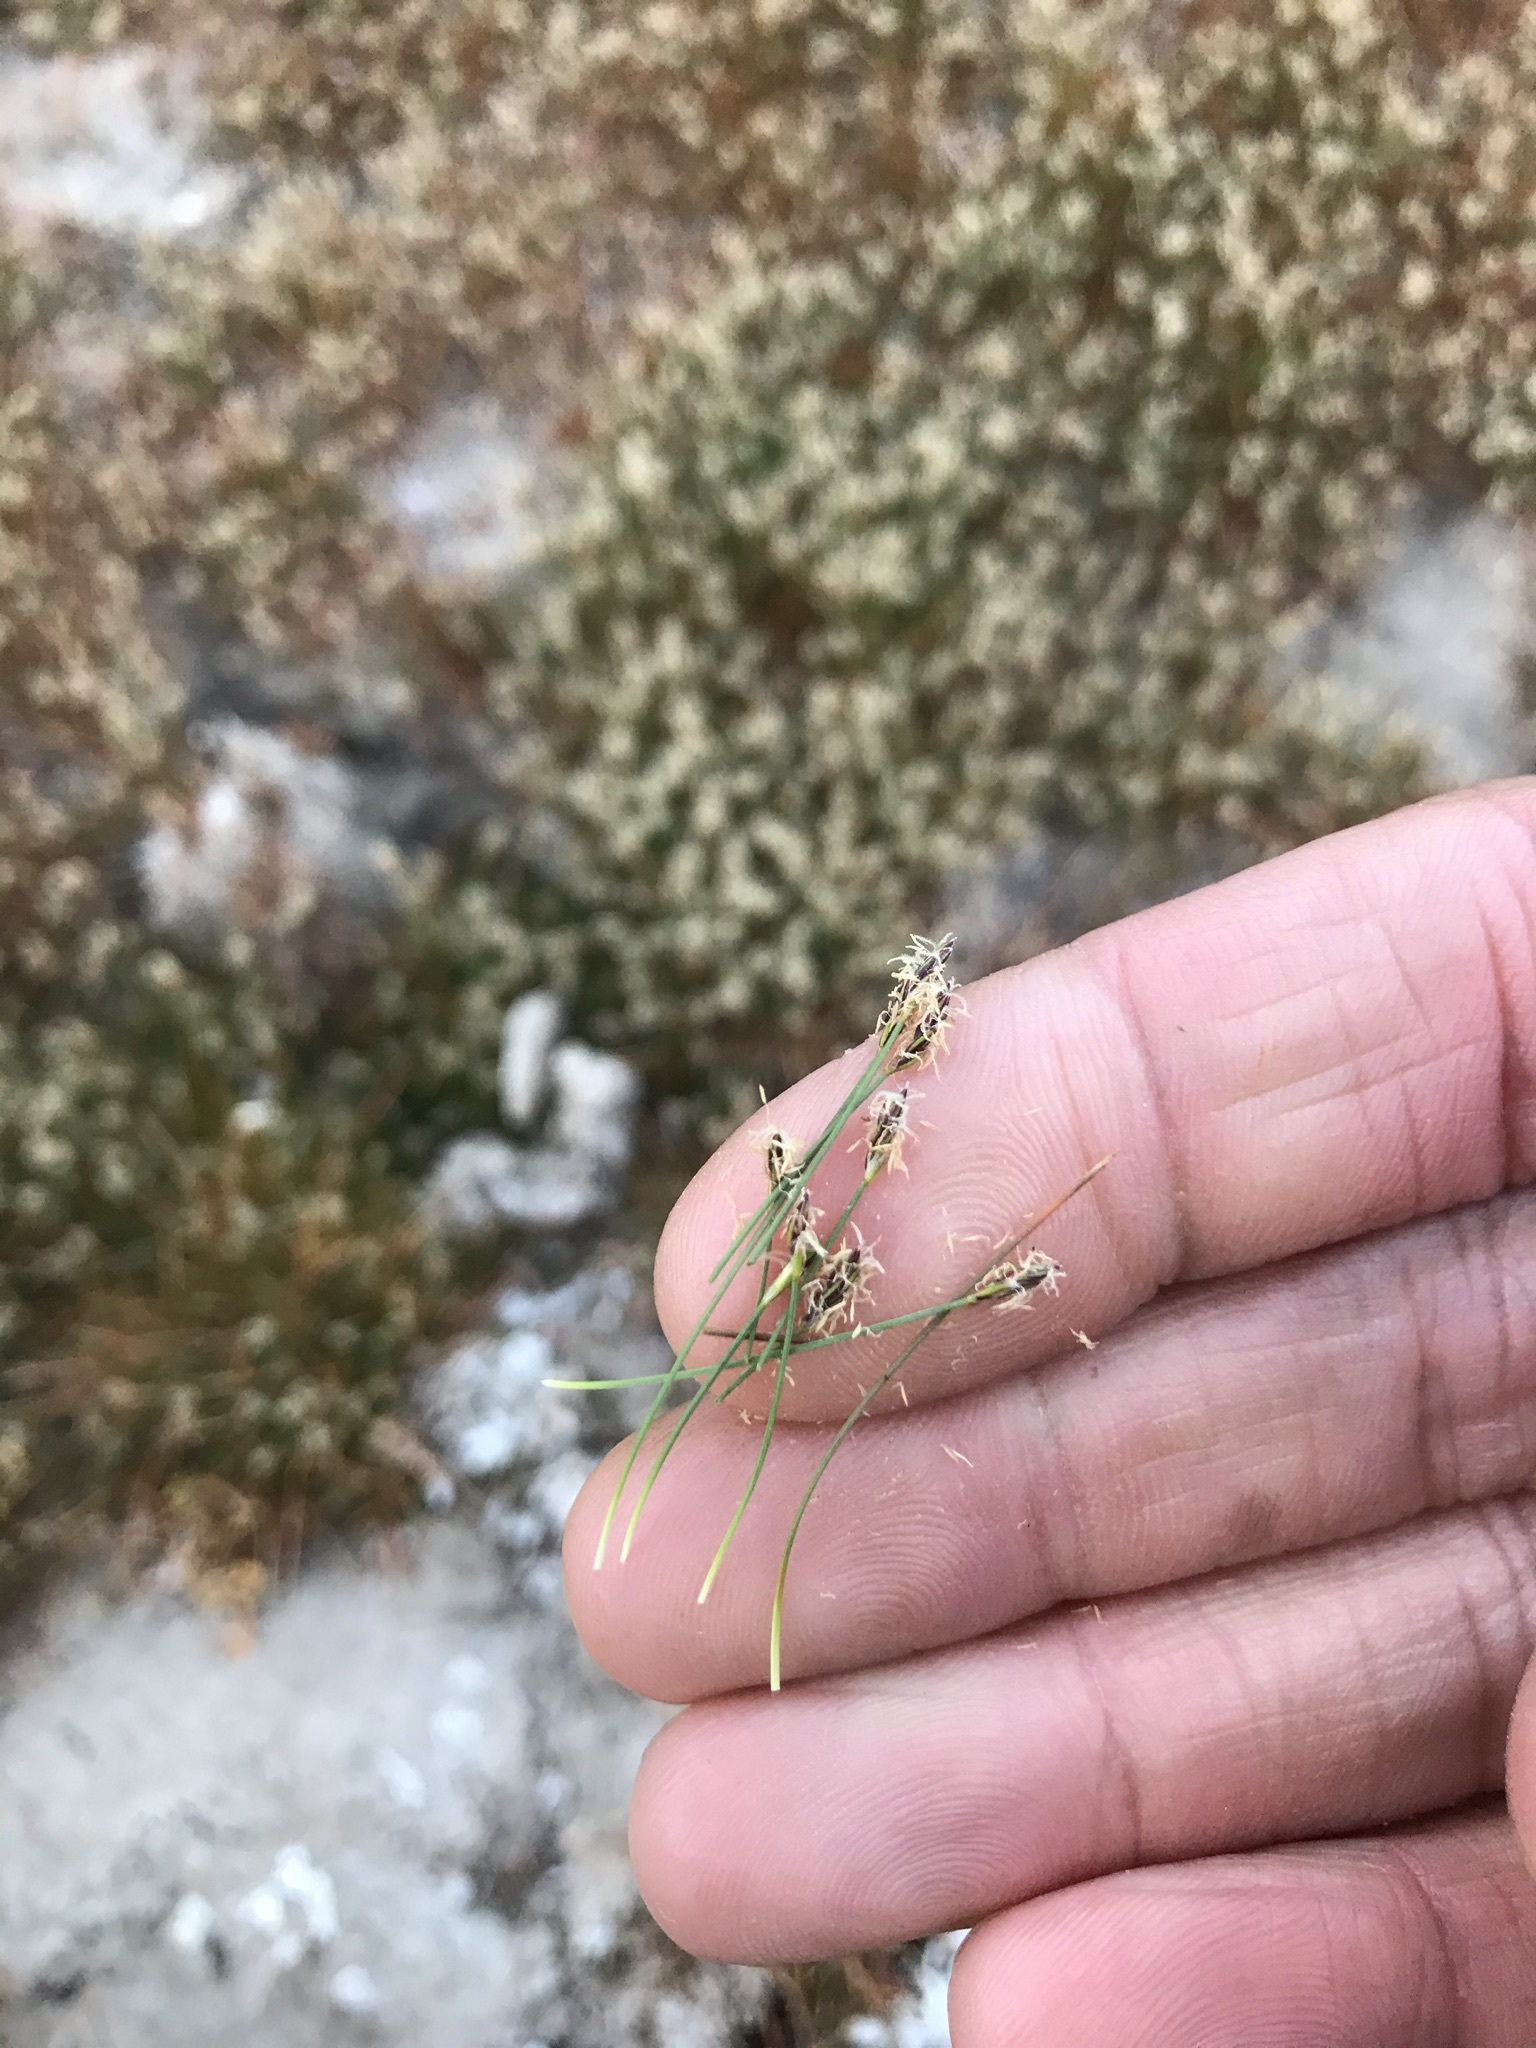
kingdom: Plantae
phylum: Tracheophyta
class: Liliopsida
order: Poales
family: Cyperaceae
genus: Eleocharis
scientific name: Eleocharis acicularis
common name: Needle spike-rush
